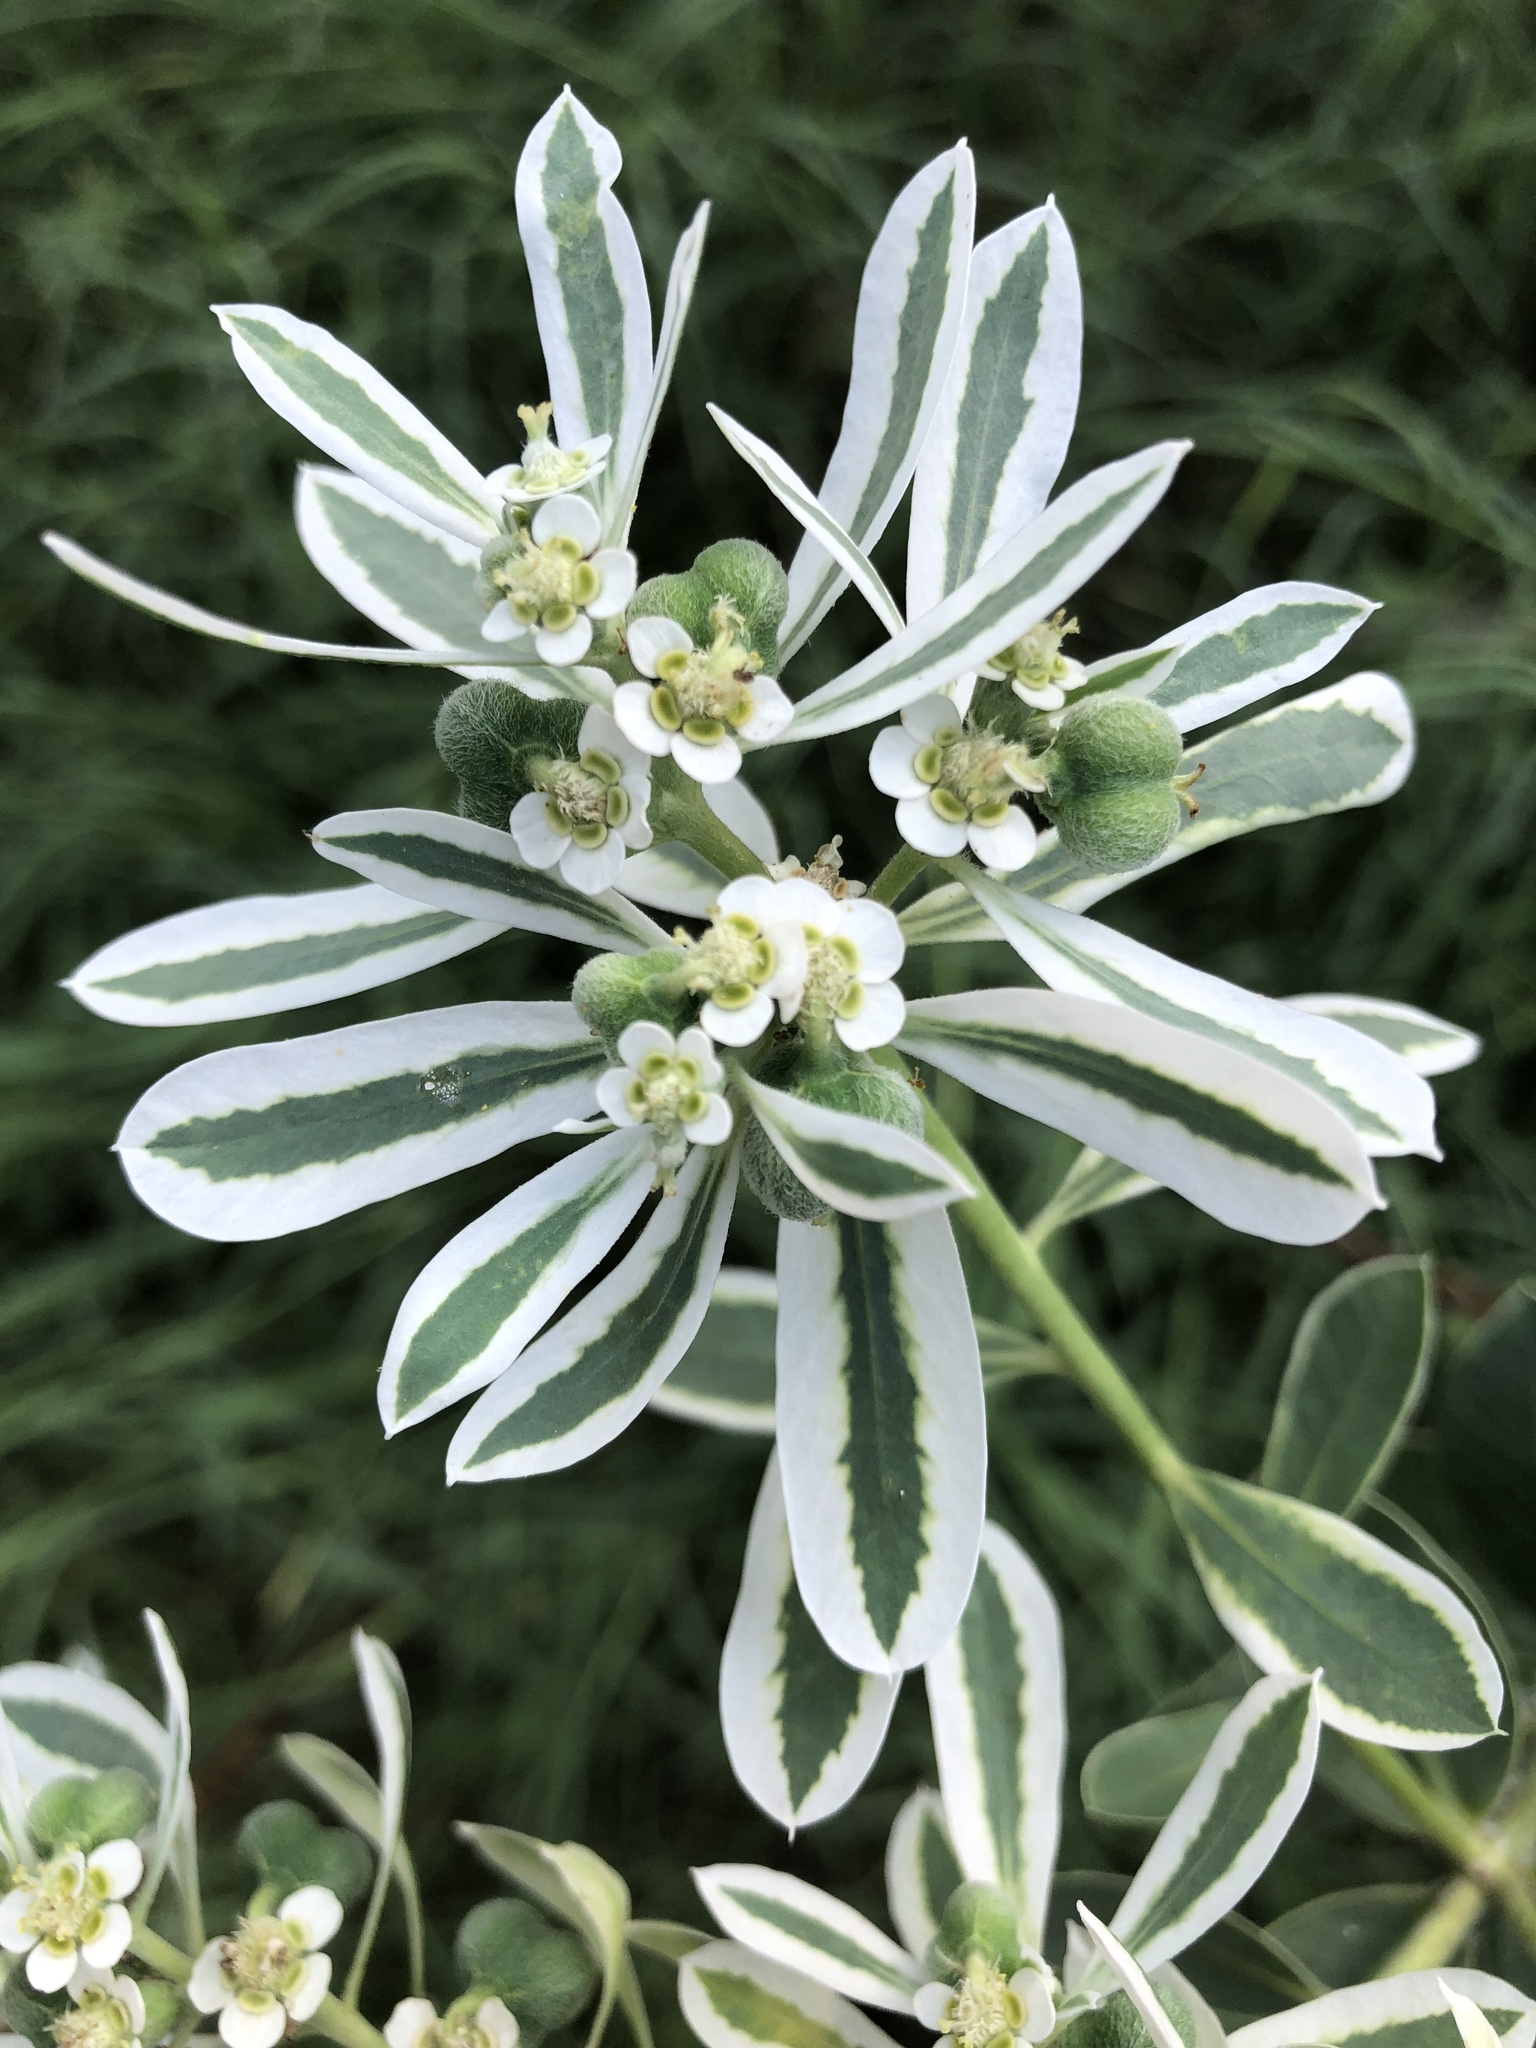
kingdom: Plantae
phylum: Tracheophyta
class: Magnoliopsida
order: Malpighiales
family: Euphorbiaceae
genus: Euphorbia
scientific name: Euphorbia marginata
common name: Ghostweed
